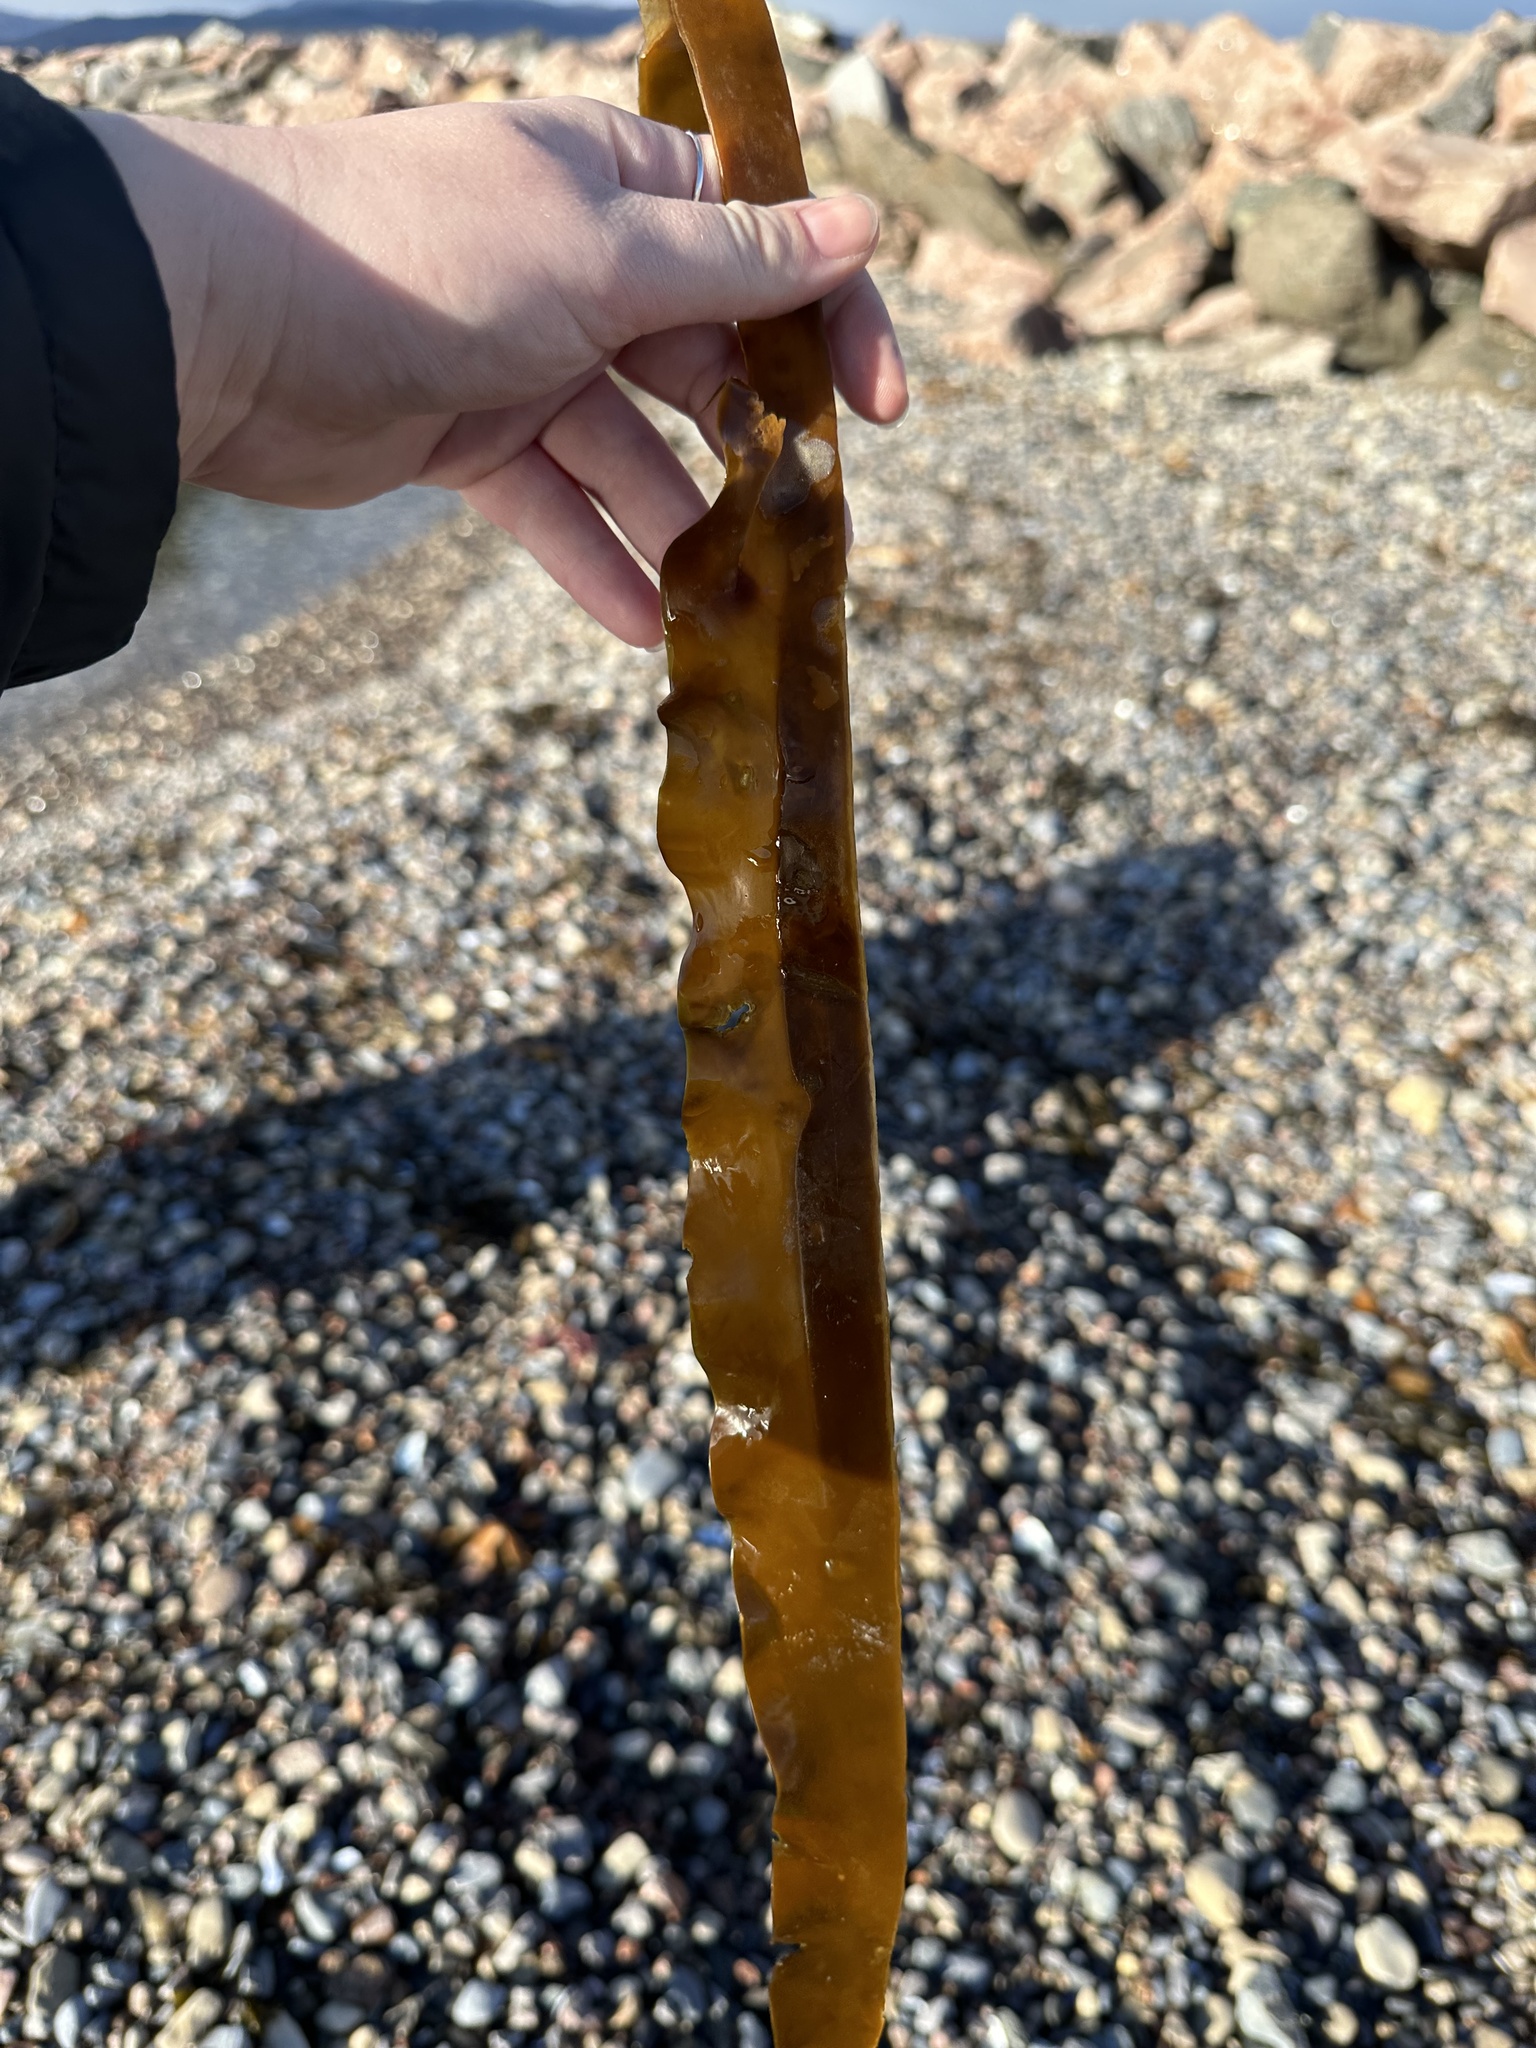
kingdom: Chromista
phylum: Ochrophyta
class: Phaeophyceae
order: Laminariales
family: Laminariaceae
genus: Laminaria
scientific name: Laminaria digitata
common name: Oarweed
